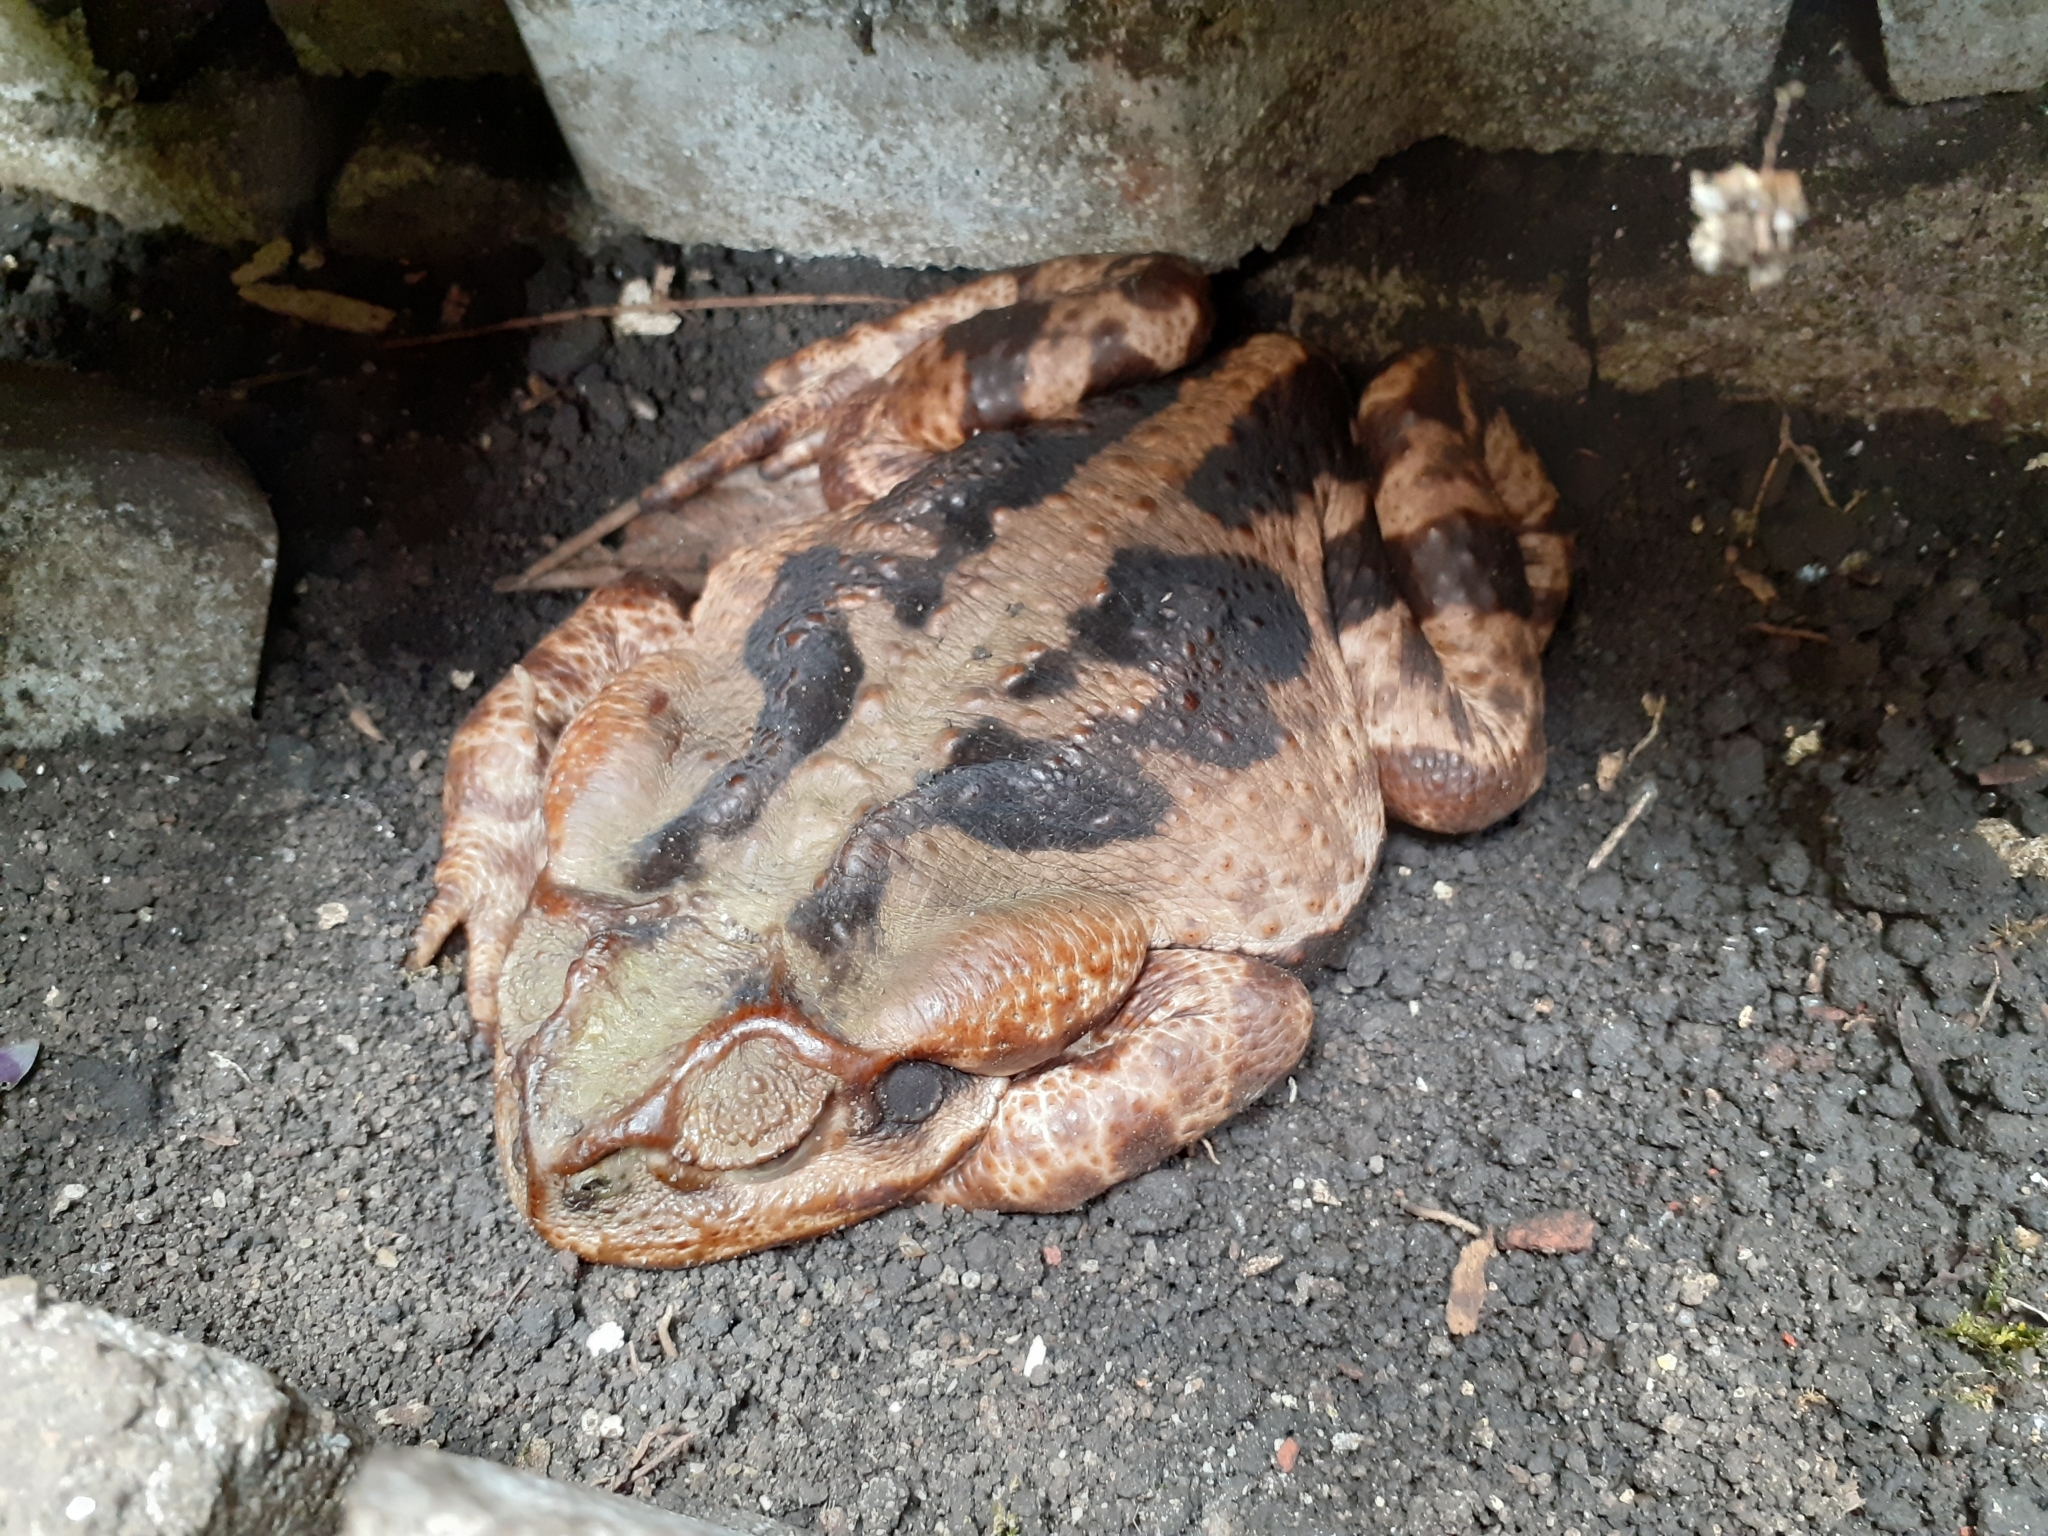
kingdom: Animalia
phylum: Chordata
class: Amphibia
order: Anura
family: Bufonidae
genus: Rhinella
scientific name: Rhinella icterica
